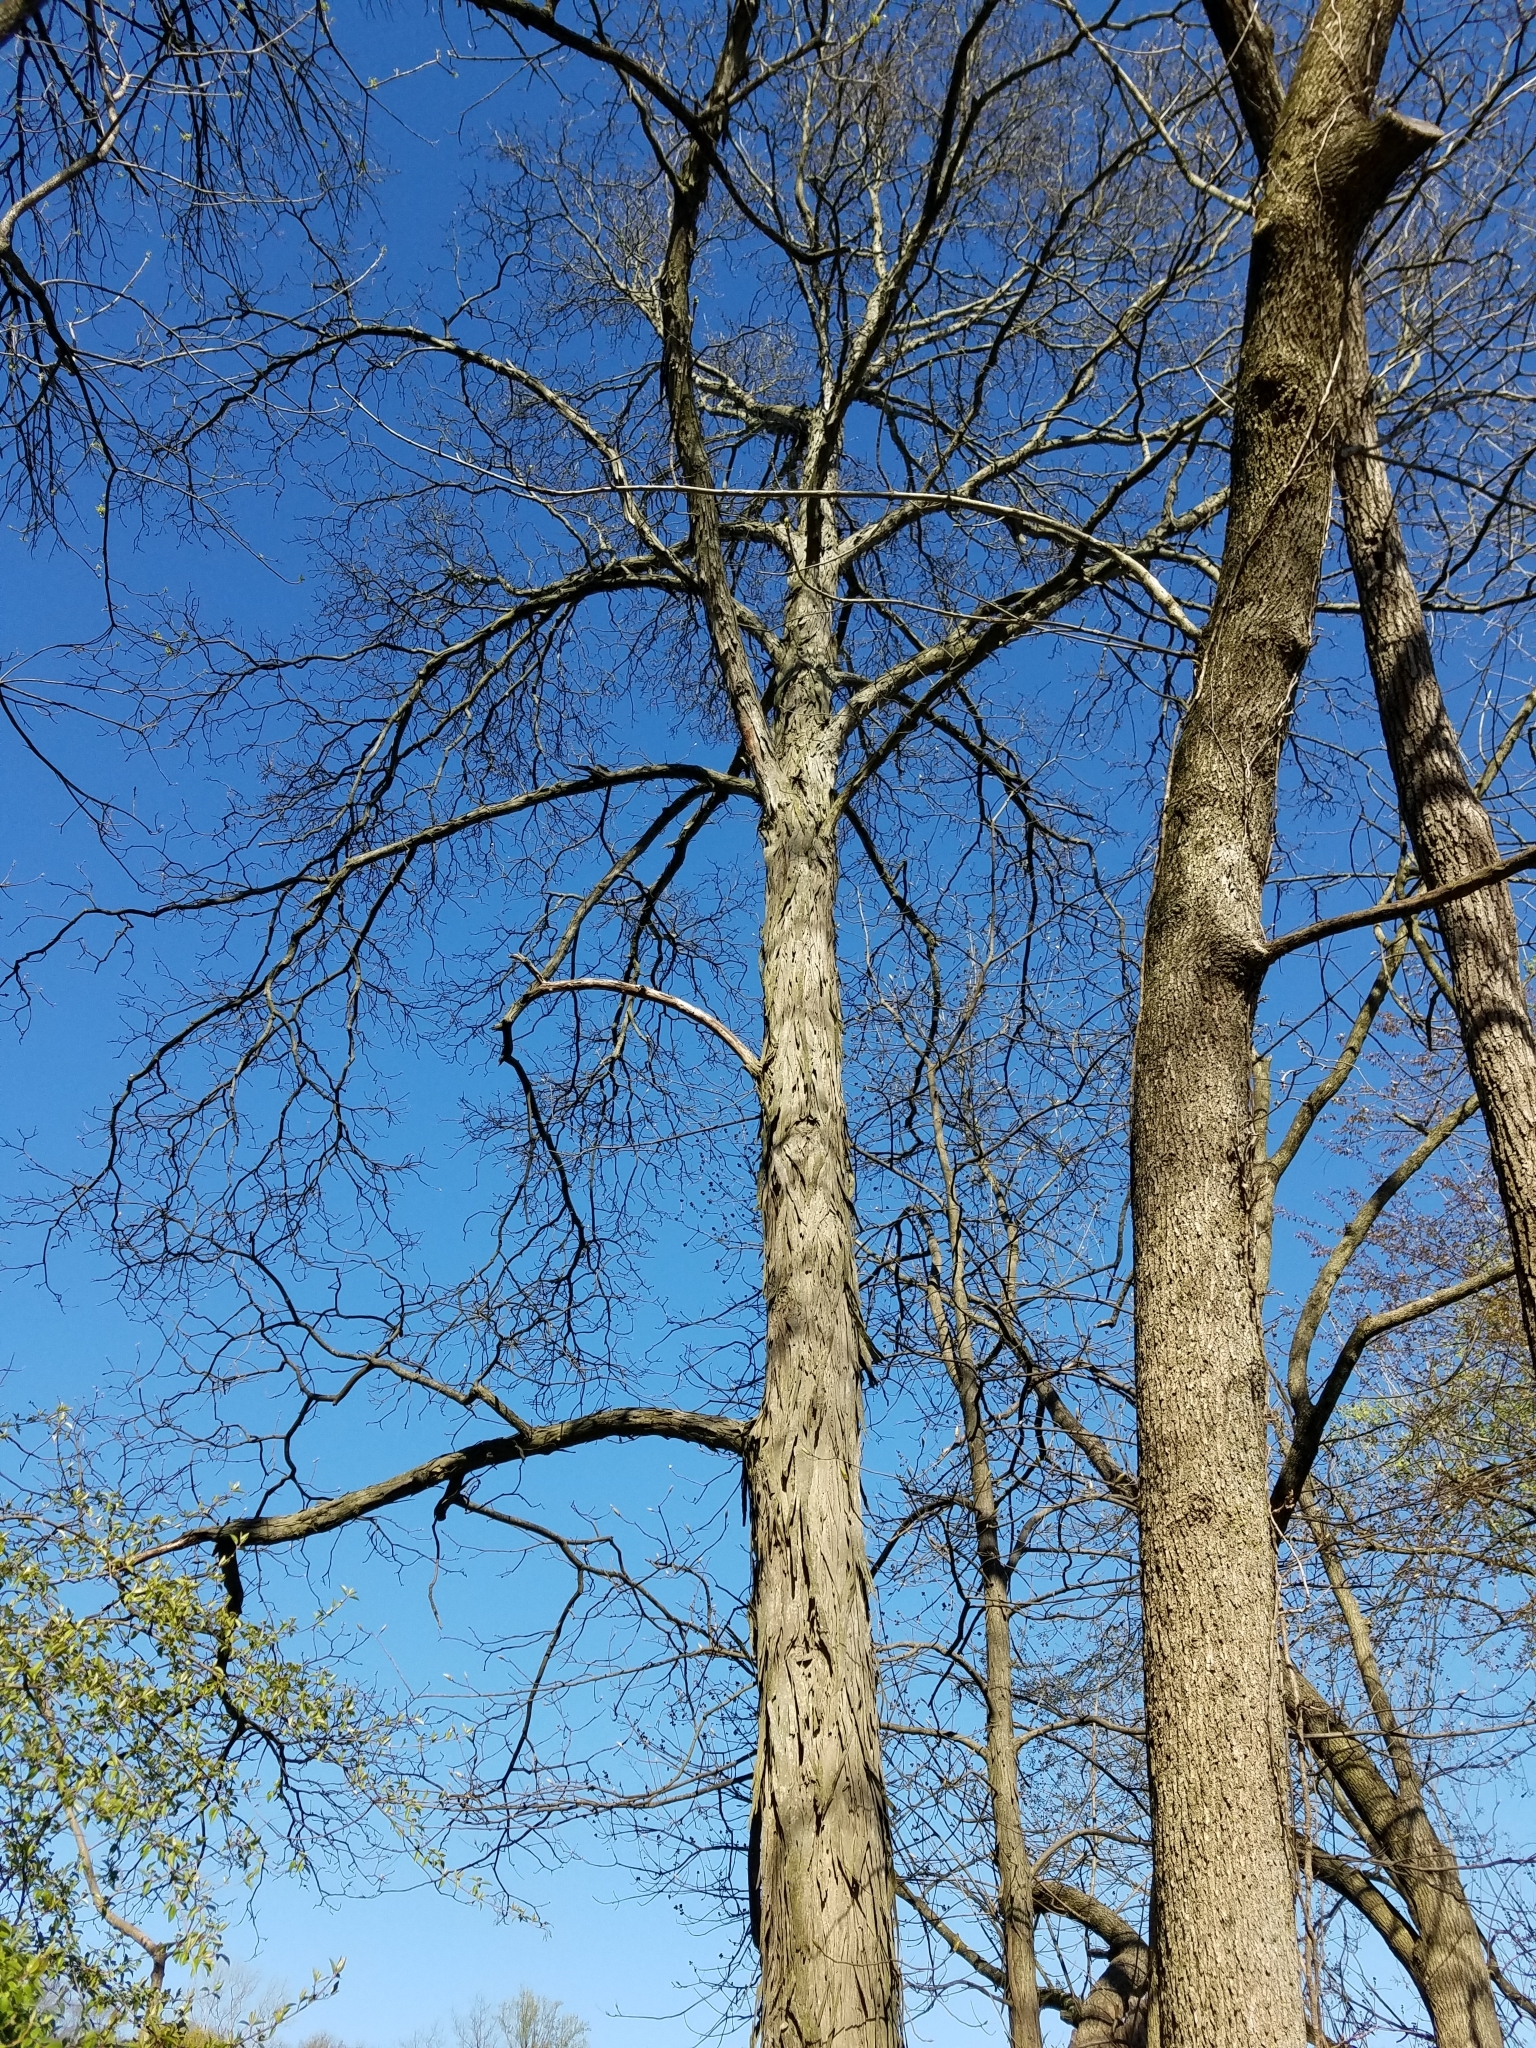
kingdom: Plantae
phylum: Tracheophyta
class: Magnoliopsida
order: Fagales
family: Juglandaceae
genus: Carya
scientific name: Carya ovata
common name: Shagbark hickory
